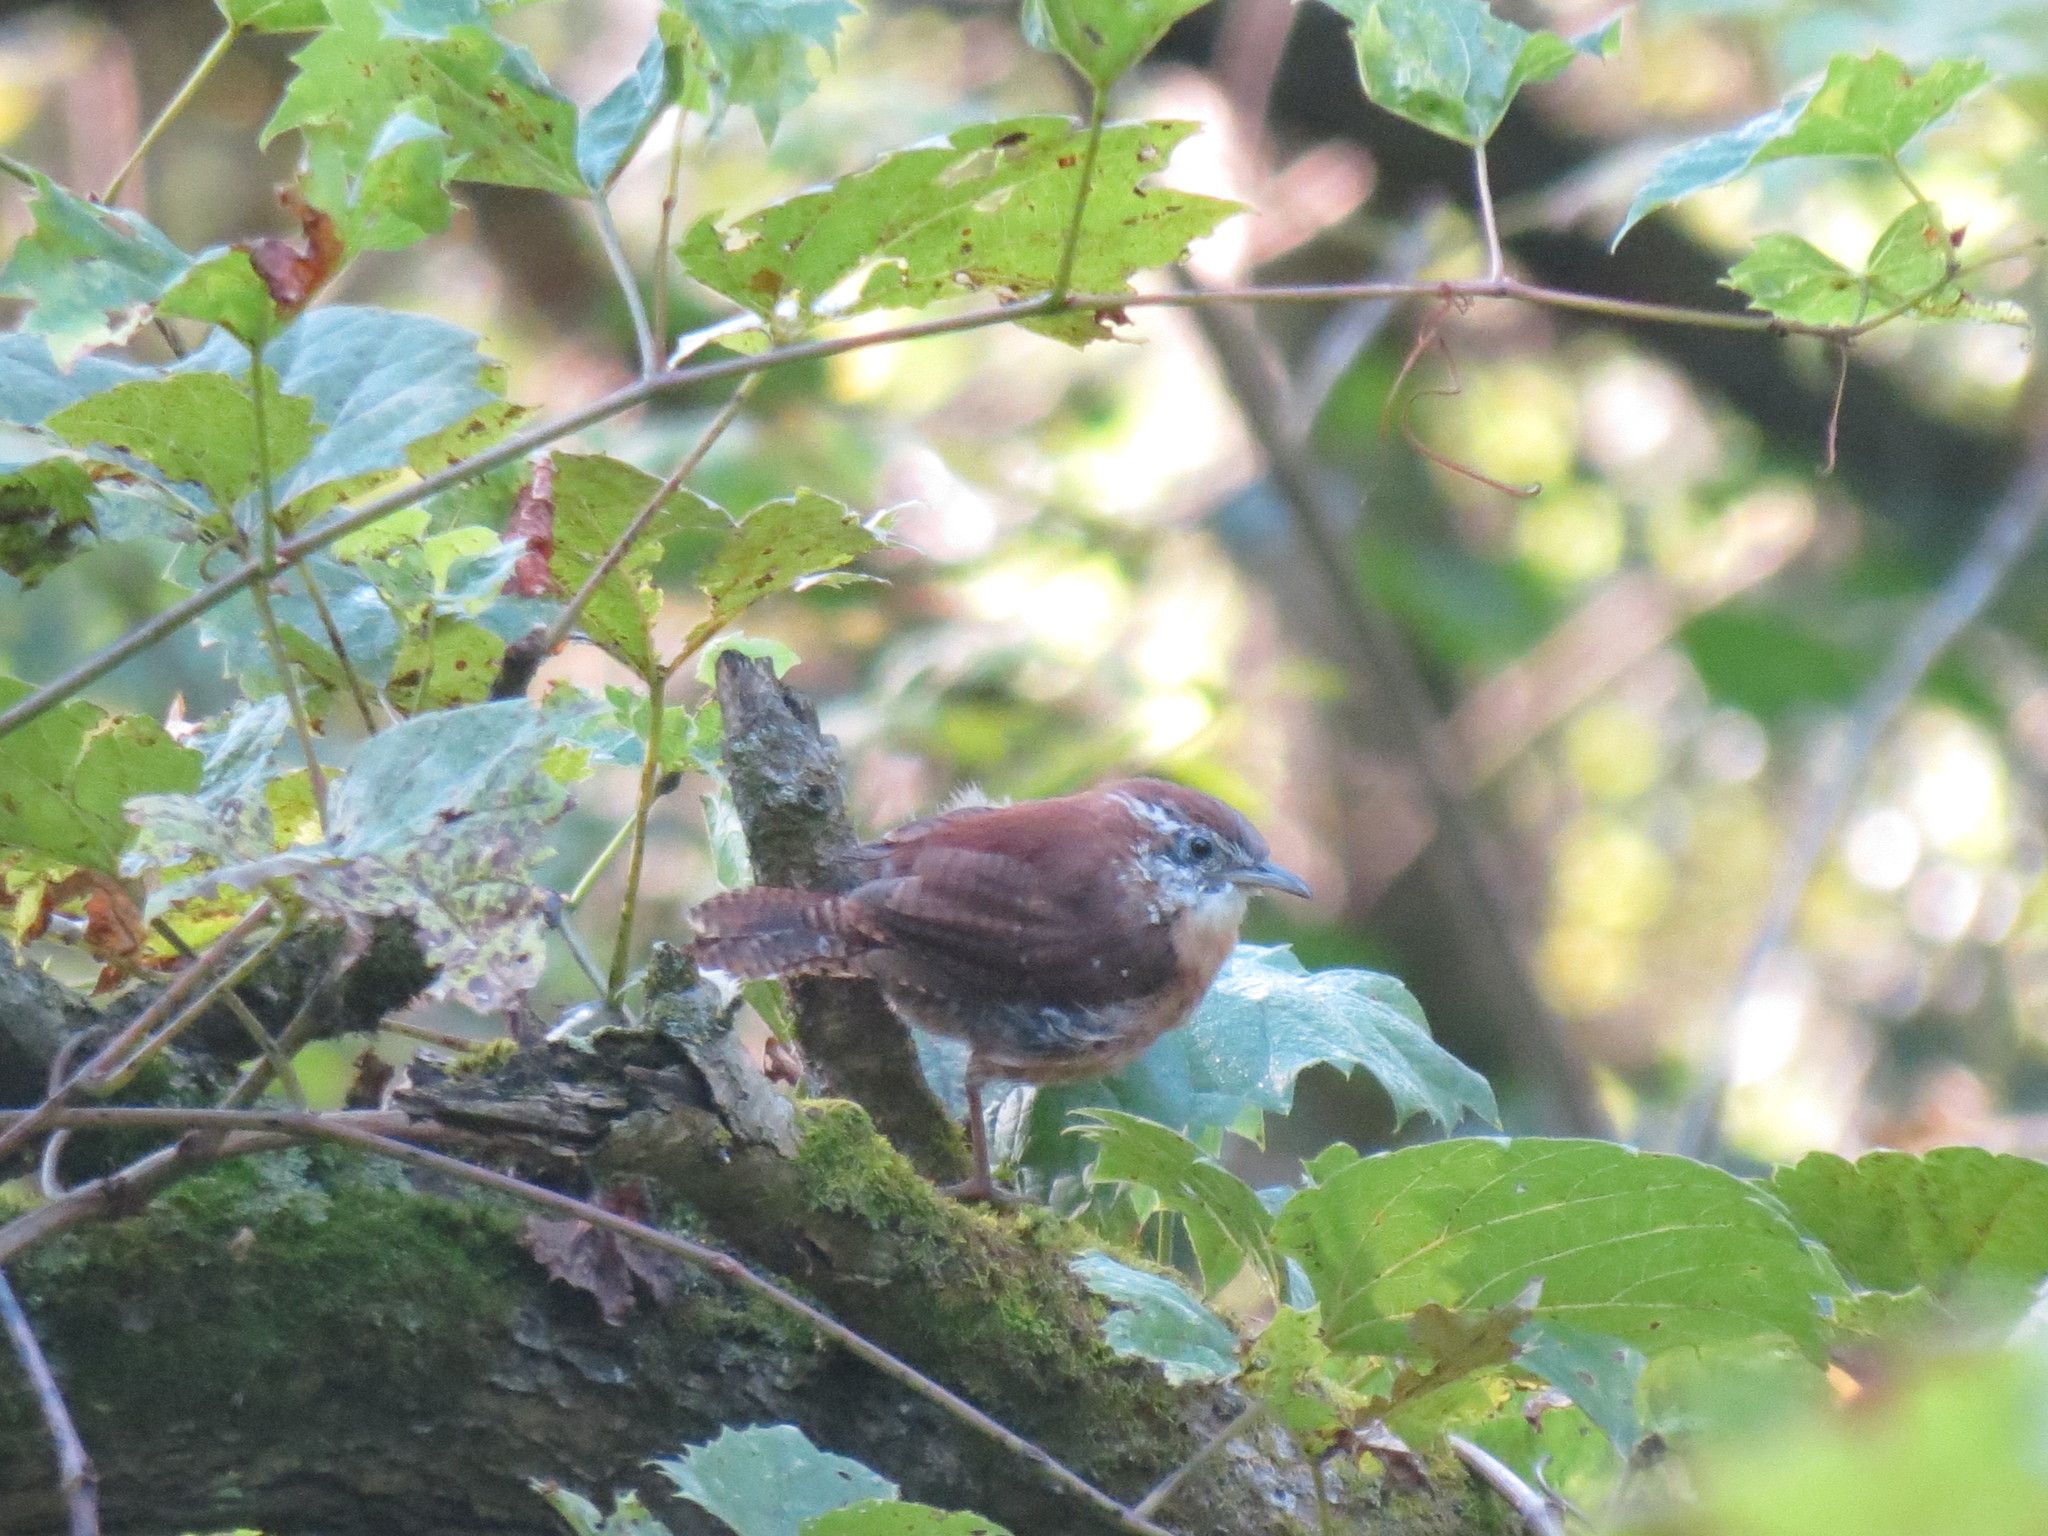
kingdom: Animalia
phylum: Chordata
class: Aves
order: Passeriformes
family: Troglodytidae
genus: Thryothorus
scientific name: Thryothorus ludovicianus
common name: Carolina wren
